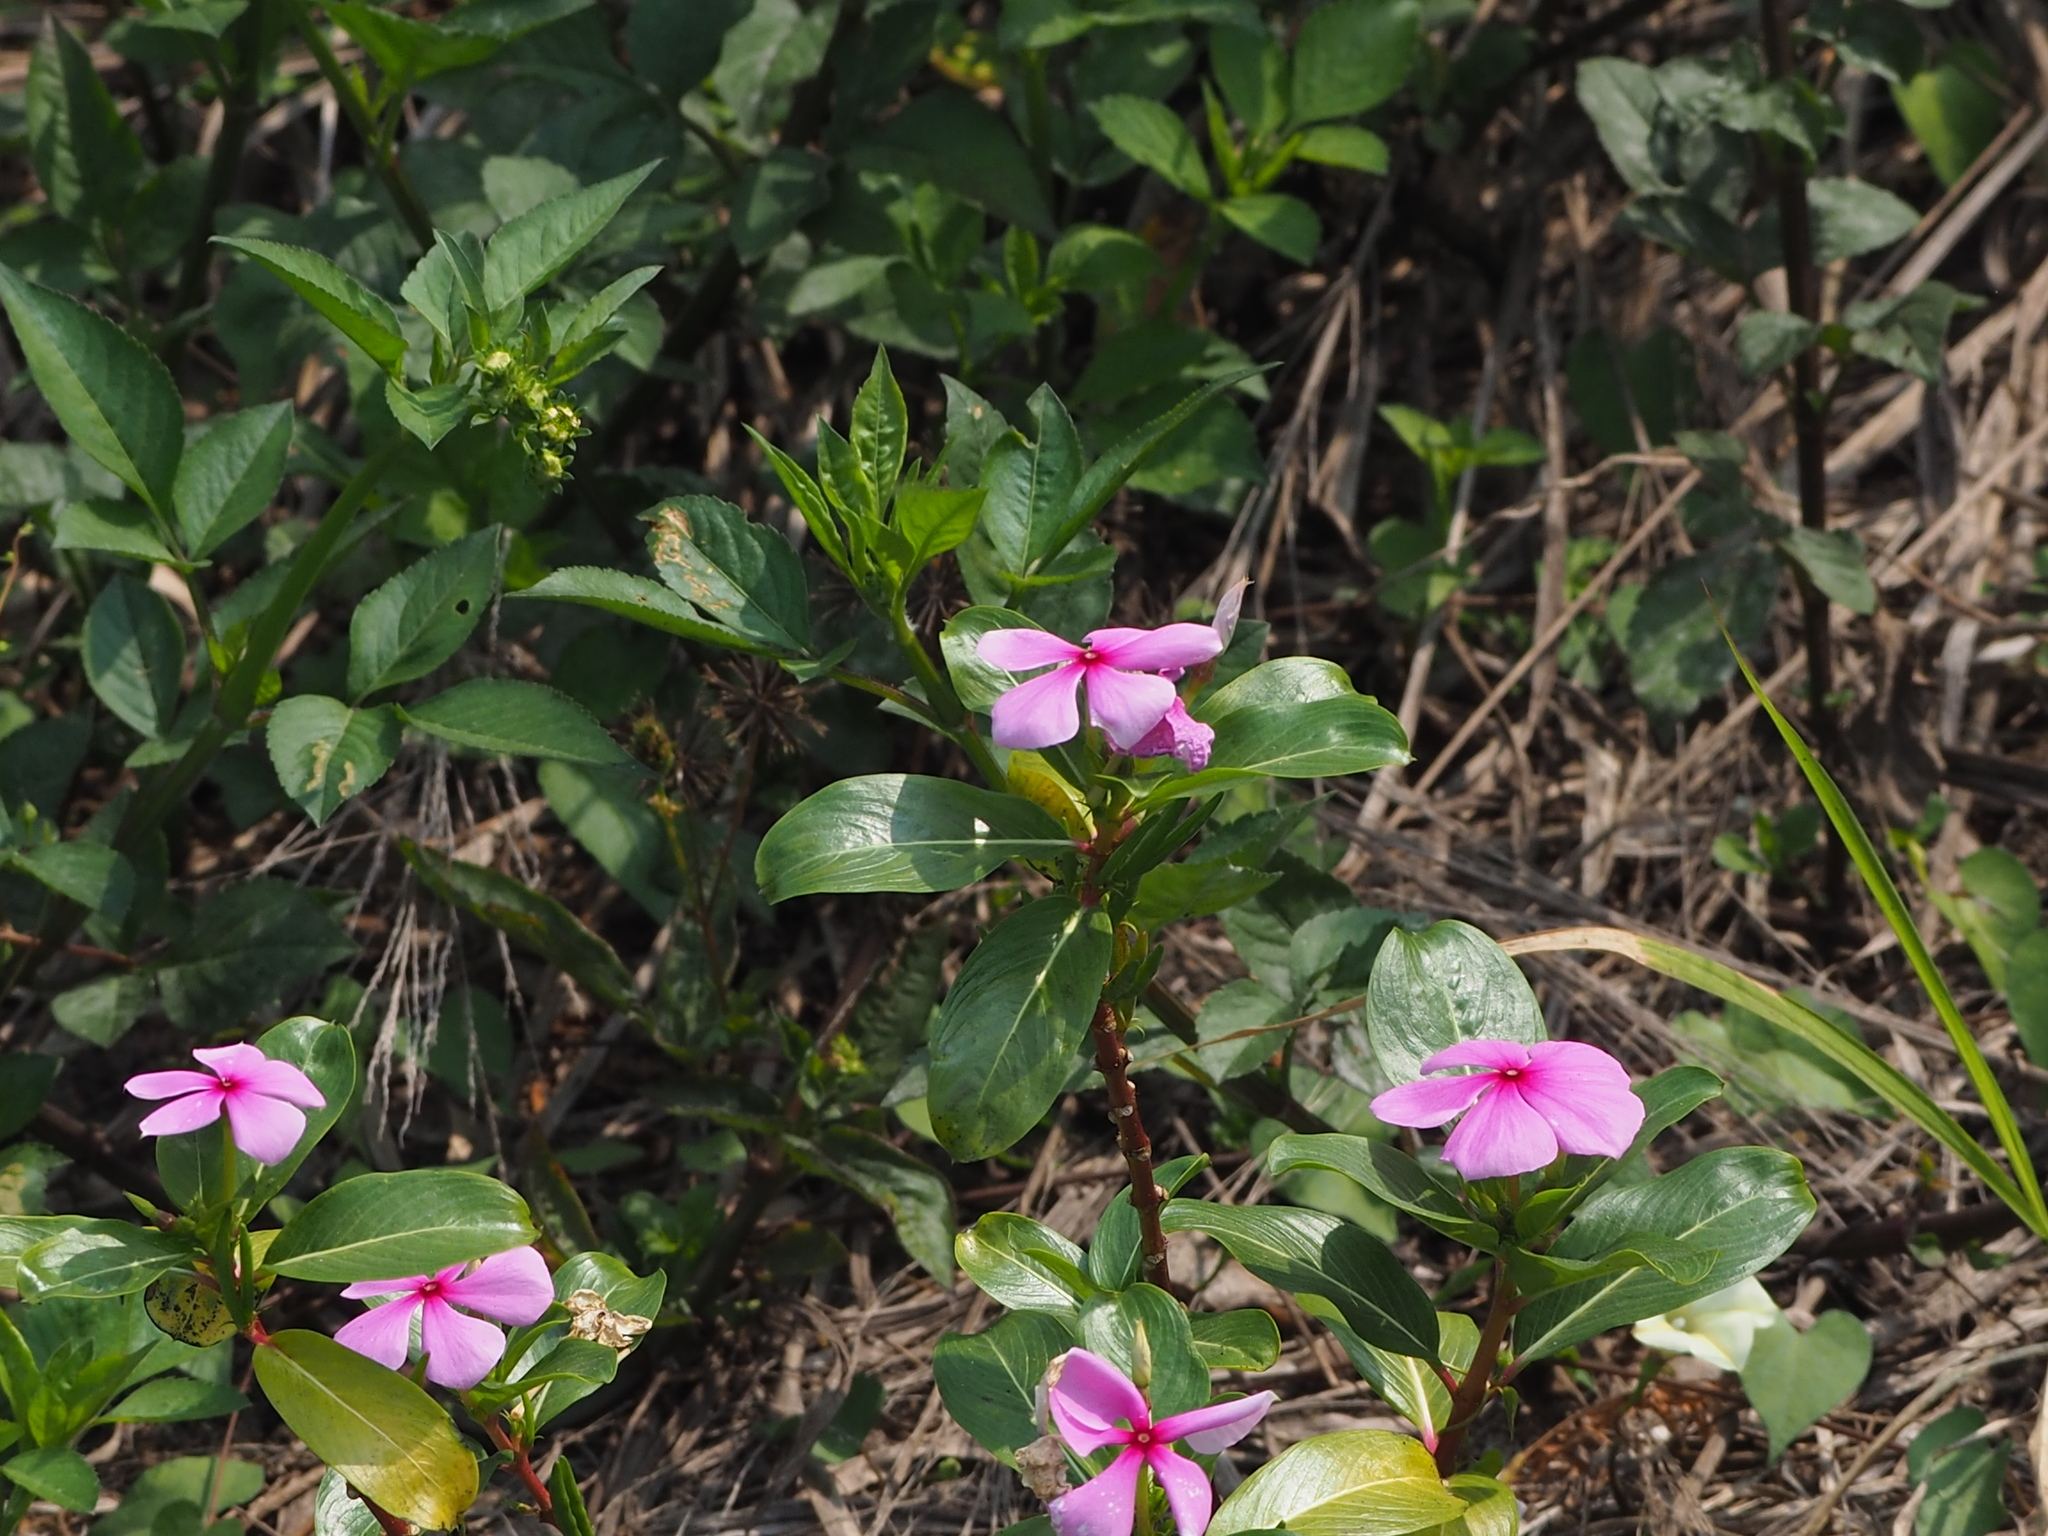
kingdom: Plantae
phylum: Tracheophyta
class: Magnoliopsida
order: Gentianales
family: Apocynaceae
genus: Catharanthus
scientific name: Catharanthus roseus
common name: Madagascar periwinkle
